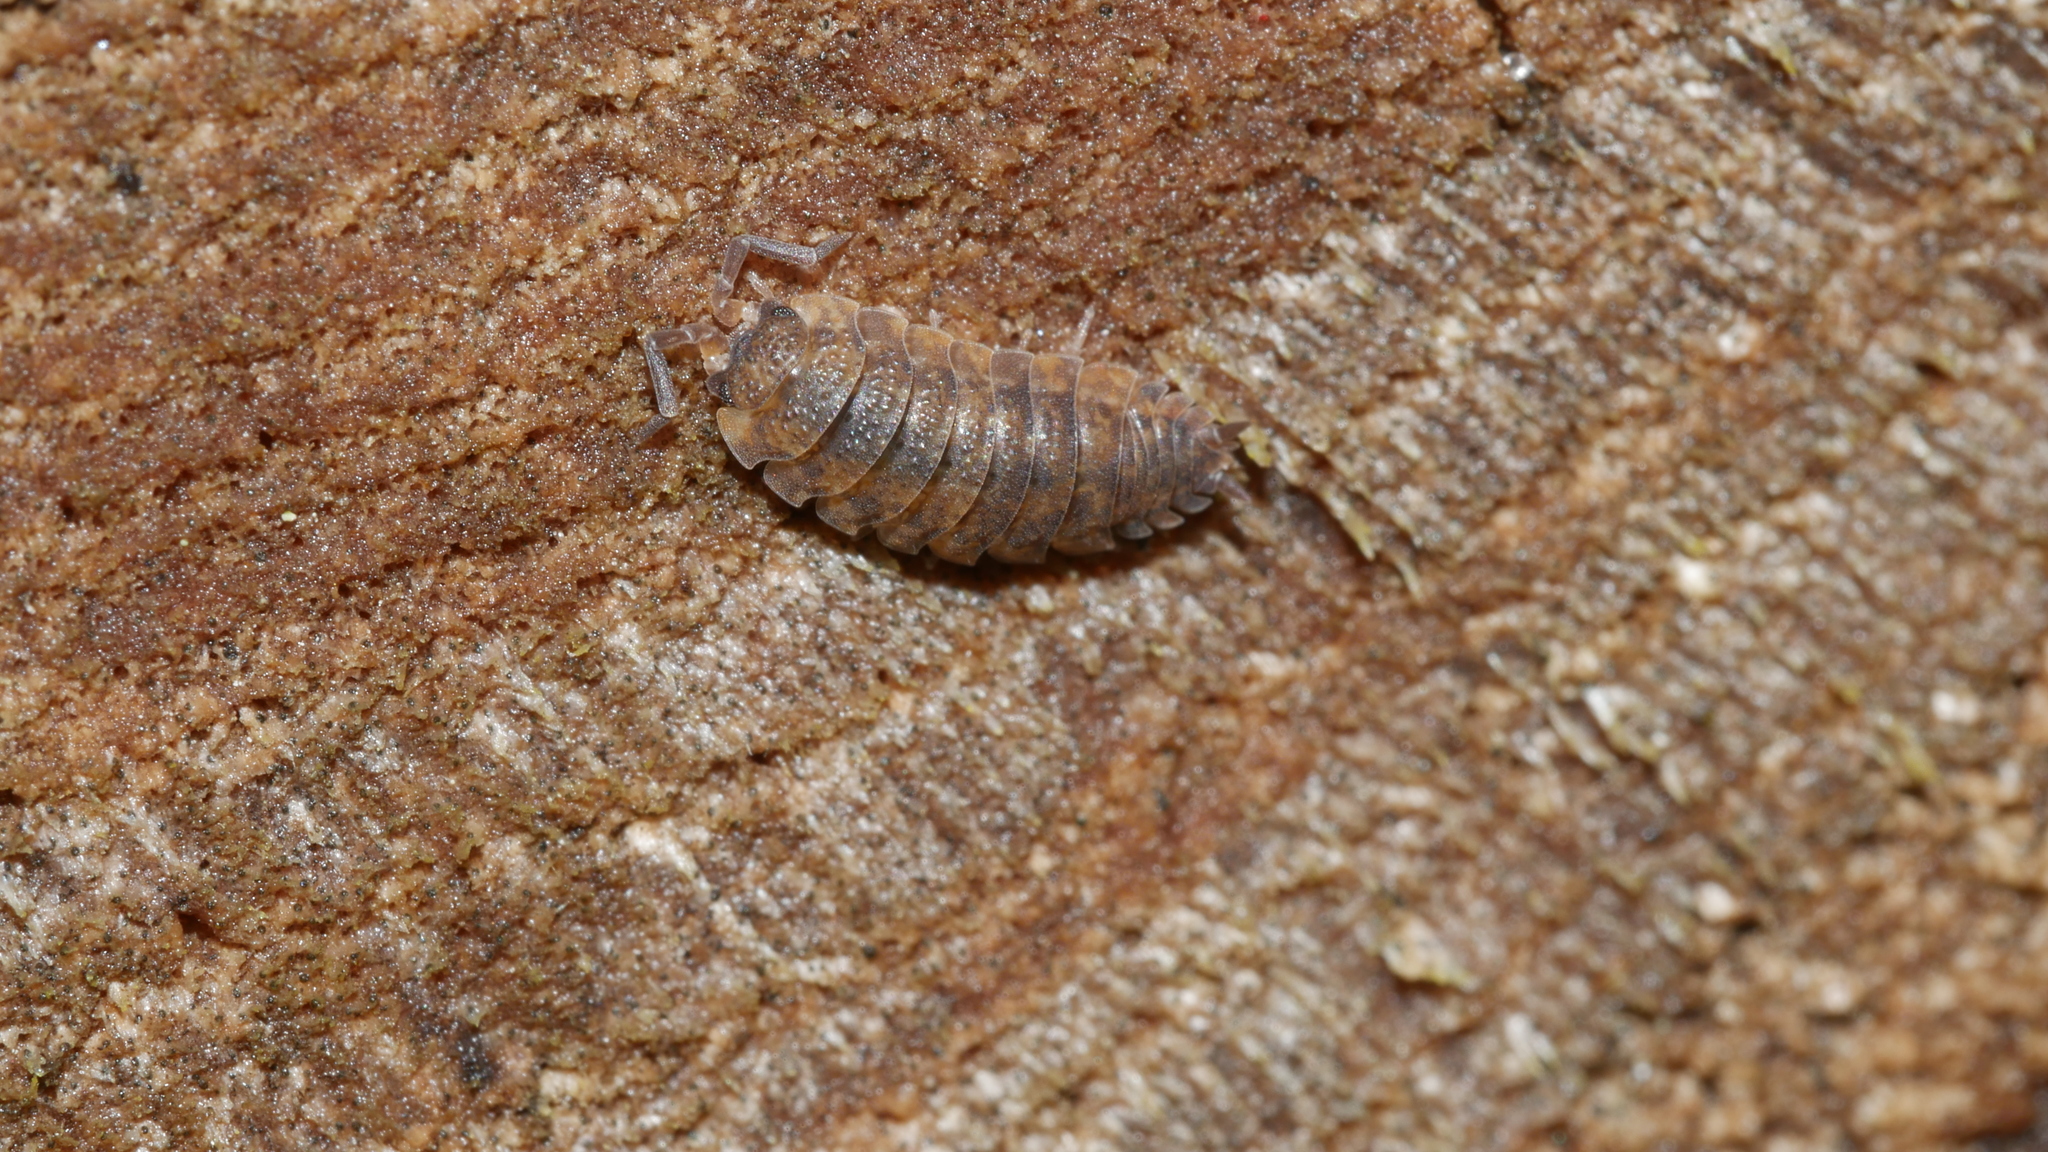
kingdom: Animalia
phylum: Arthropoda
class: Malacostraca
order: Isopoda
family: Porcellionidae
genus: Porcellio
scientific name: Porcellio scaber
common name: Common rough woodlouse
